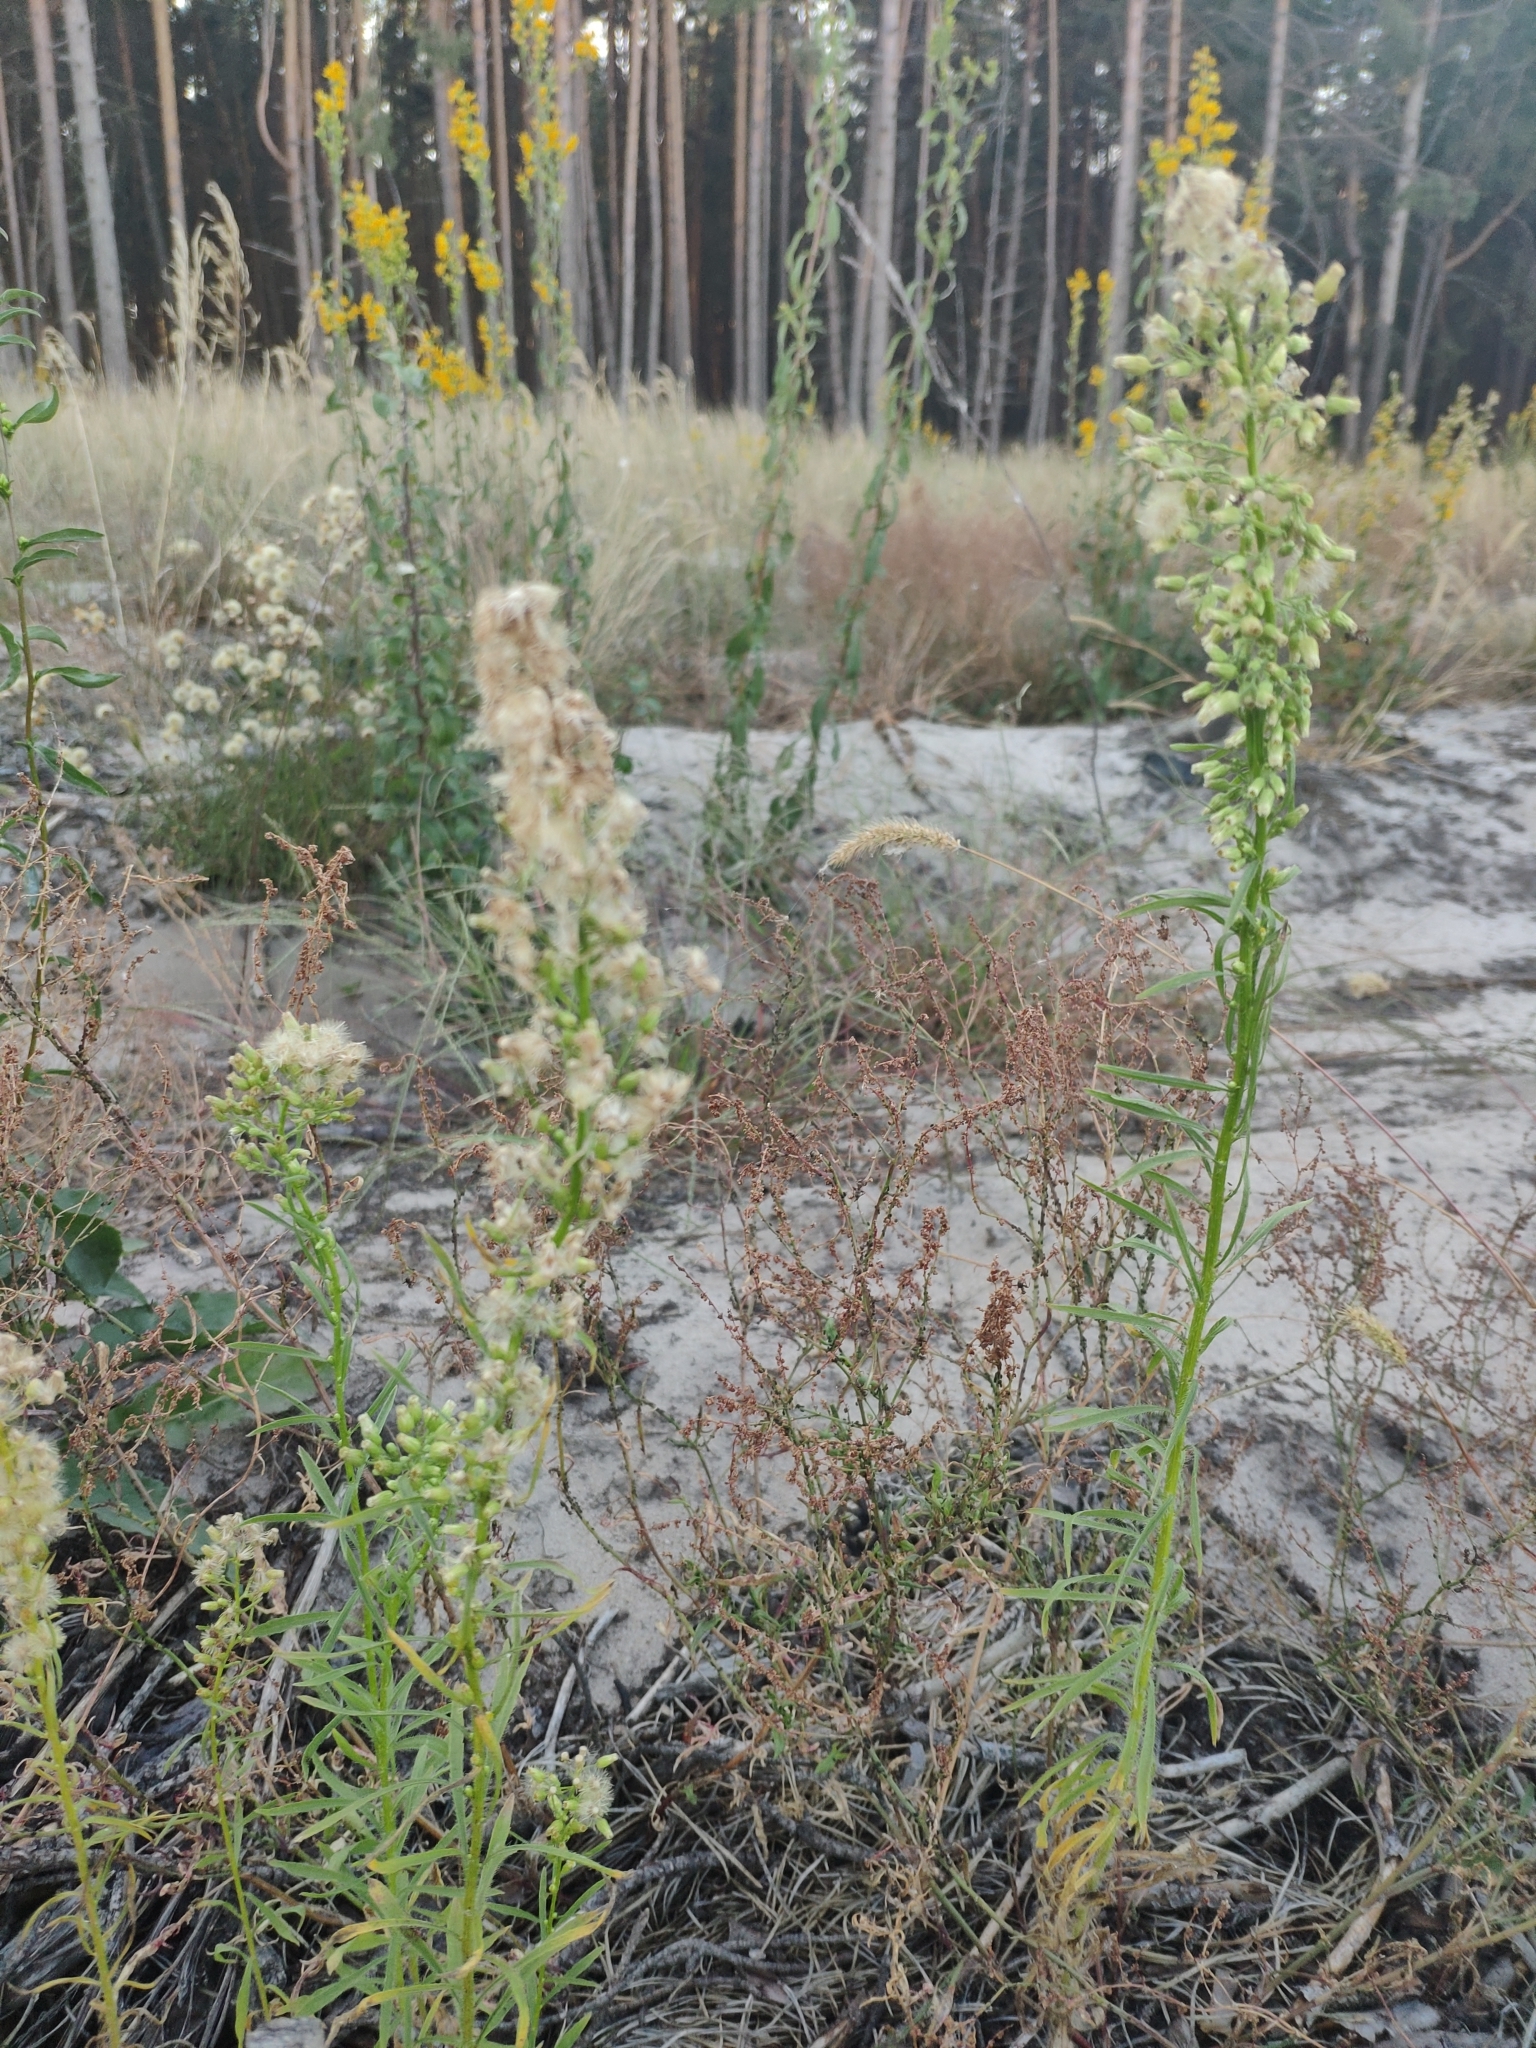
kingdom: Plantae
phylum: Tracheophyta
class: Magnoliopsida
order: Asterales
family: Asteraceae
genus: Erigeron
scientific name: Erigeron canadensis
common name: Canadian fleabane
